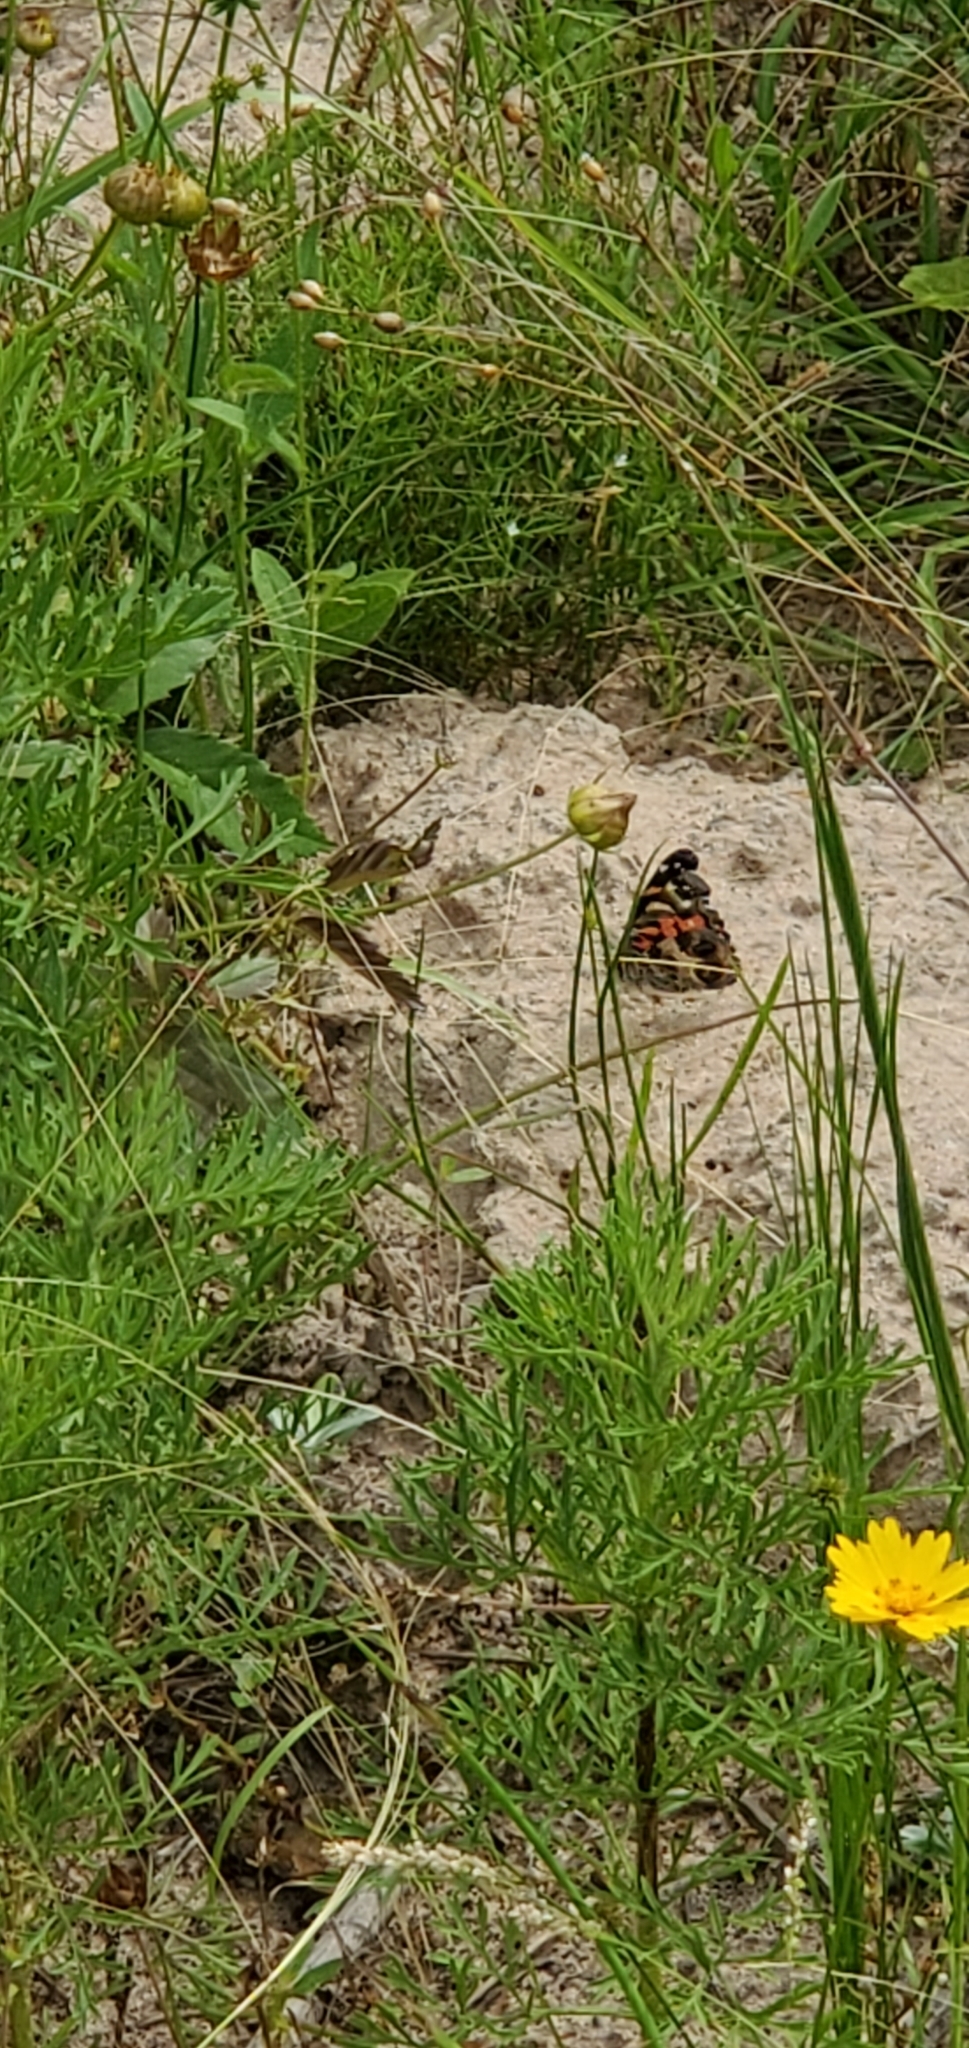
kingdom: Animalia
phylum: Arthropoda
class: Insecta
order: Lepidoptera
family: Nymphalidae
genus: Vanessa
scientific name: Vanessa virginiensis
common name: American lady
